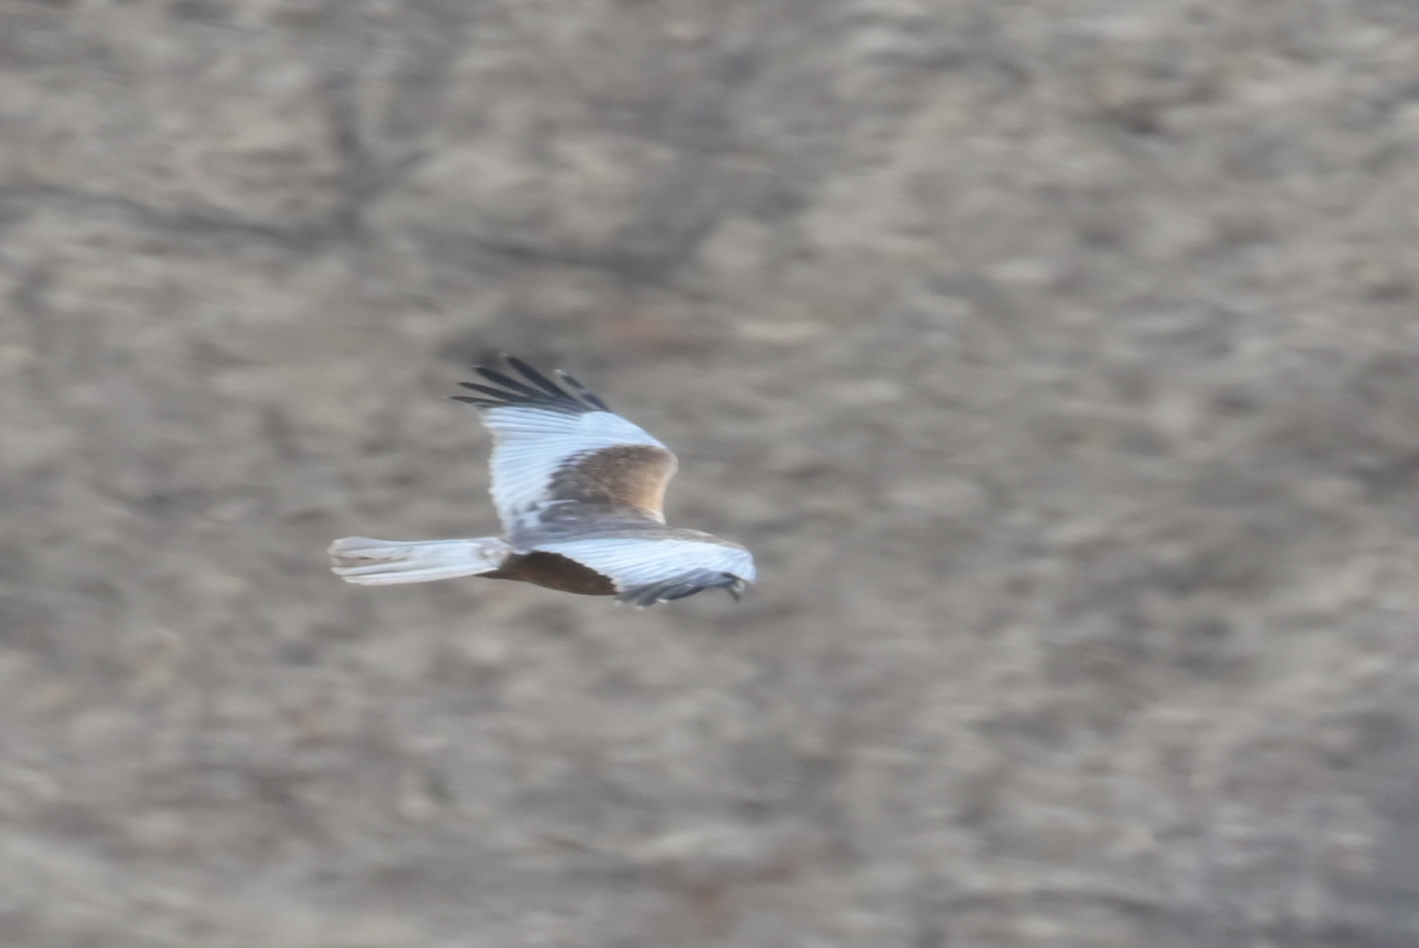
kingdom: Animalia
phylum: Chordata
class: Aves
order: Accipitriformes
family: Accipitridae
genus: Circus
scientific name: Circus aeruginosus
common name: Western marsh harrier
